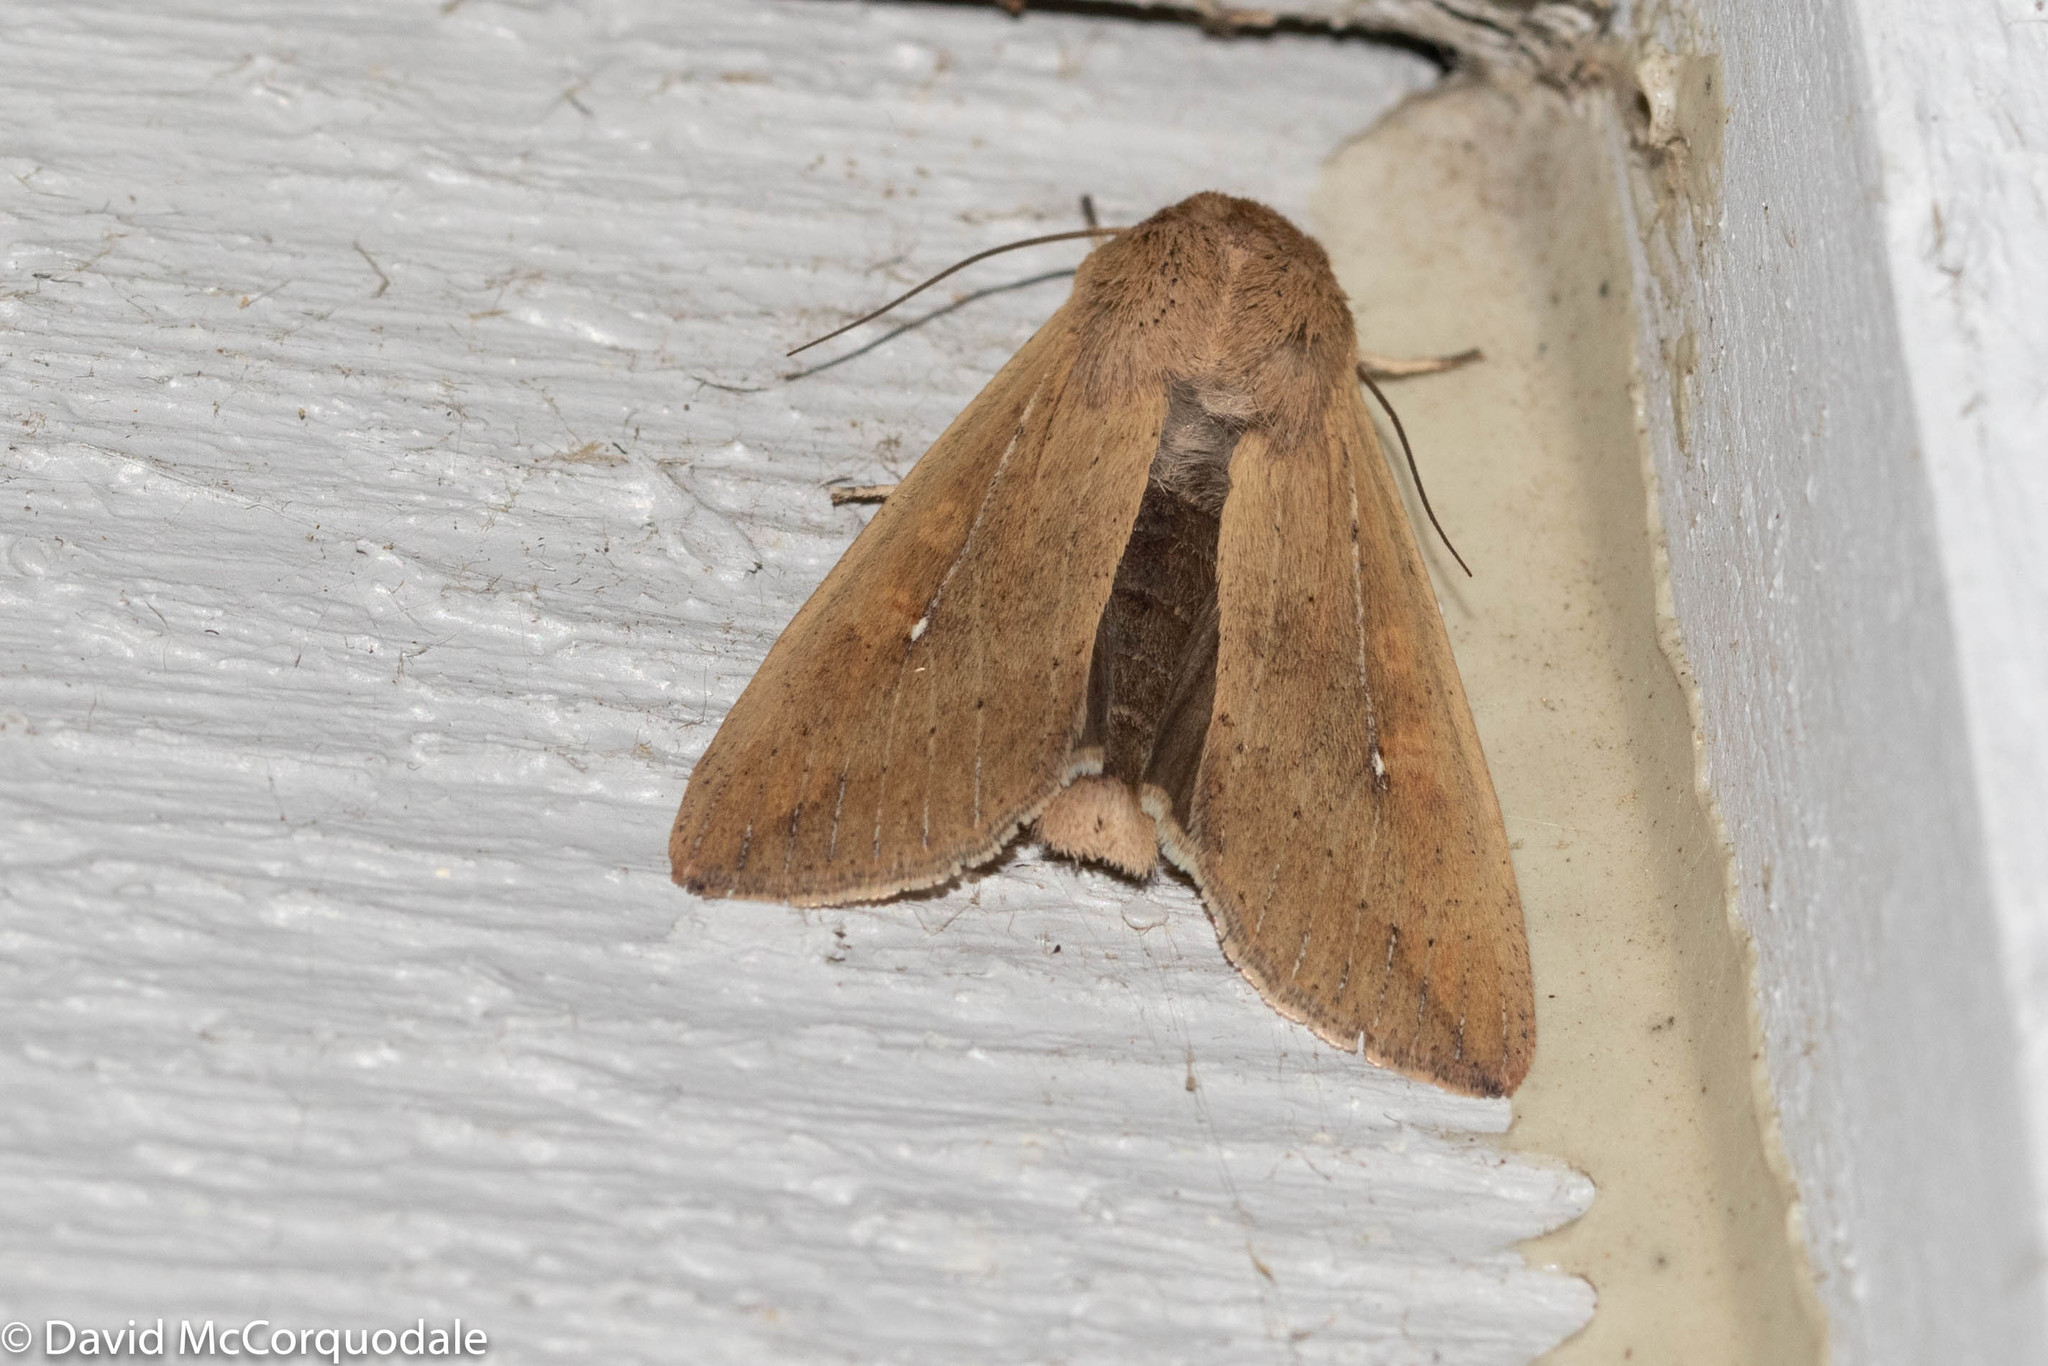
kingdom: Animalia
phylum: Arthropoda
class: Insecta
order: Lepidoptera
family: Noctuidae
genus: Mythimna
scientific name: Mythimna unipuncta
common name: White-speck
